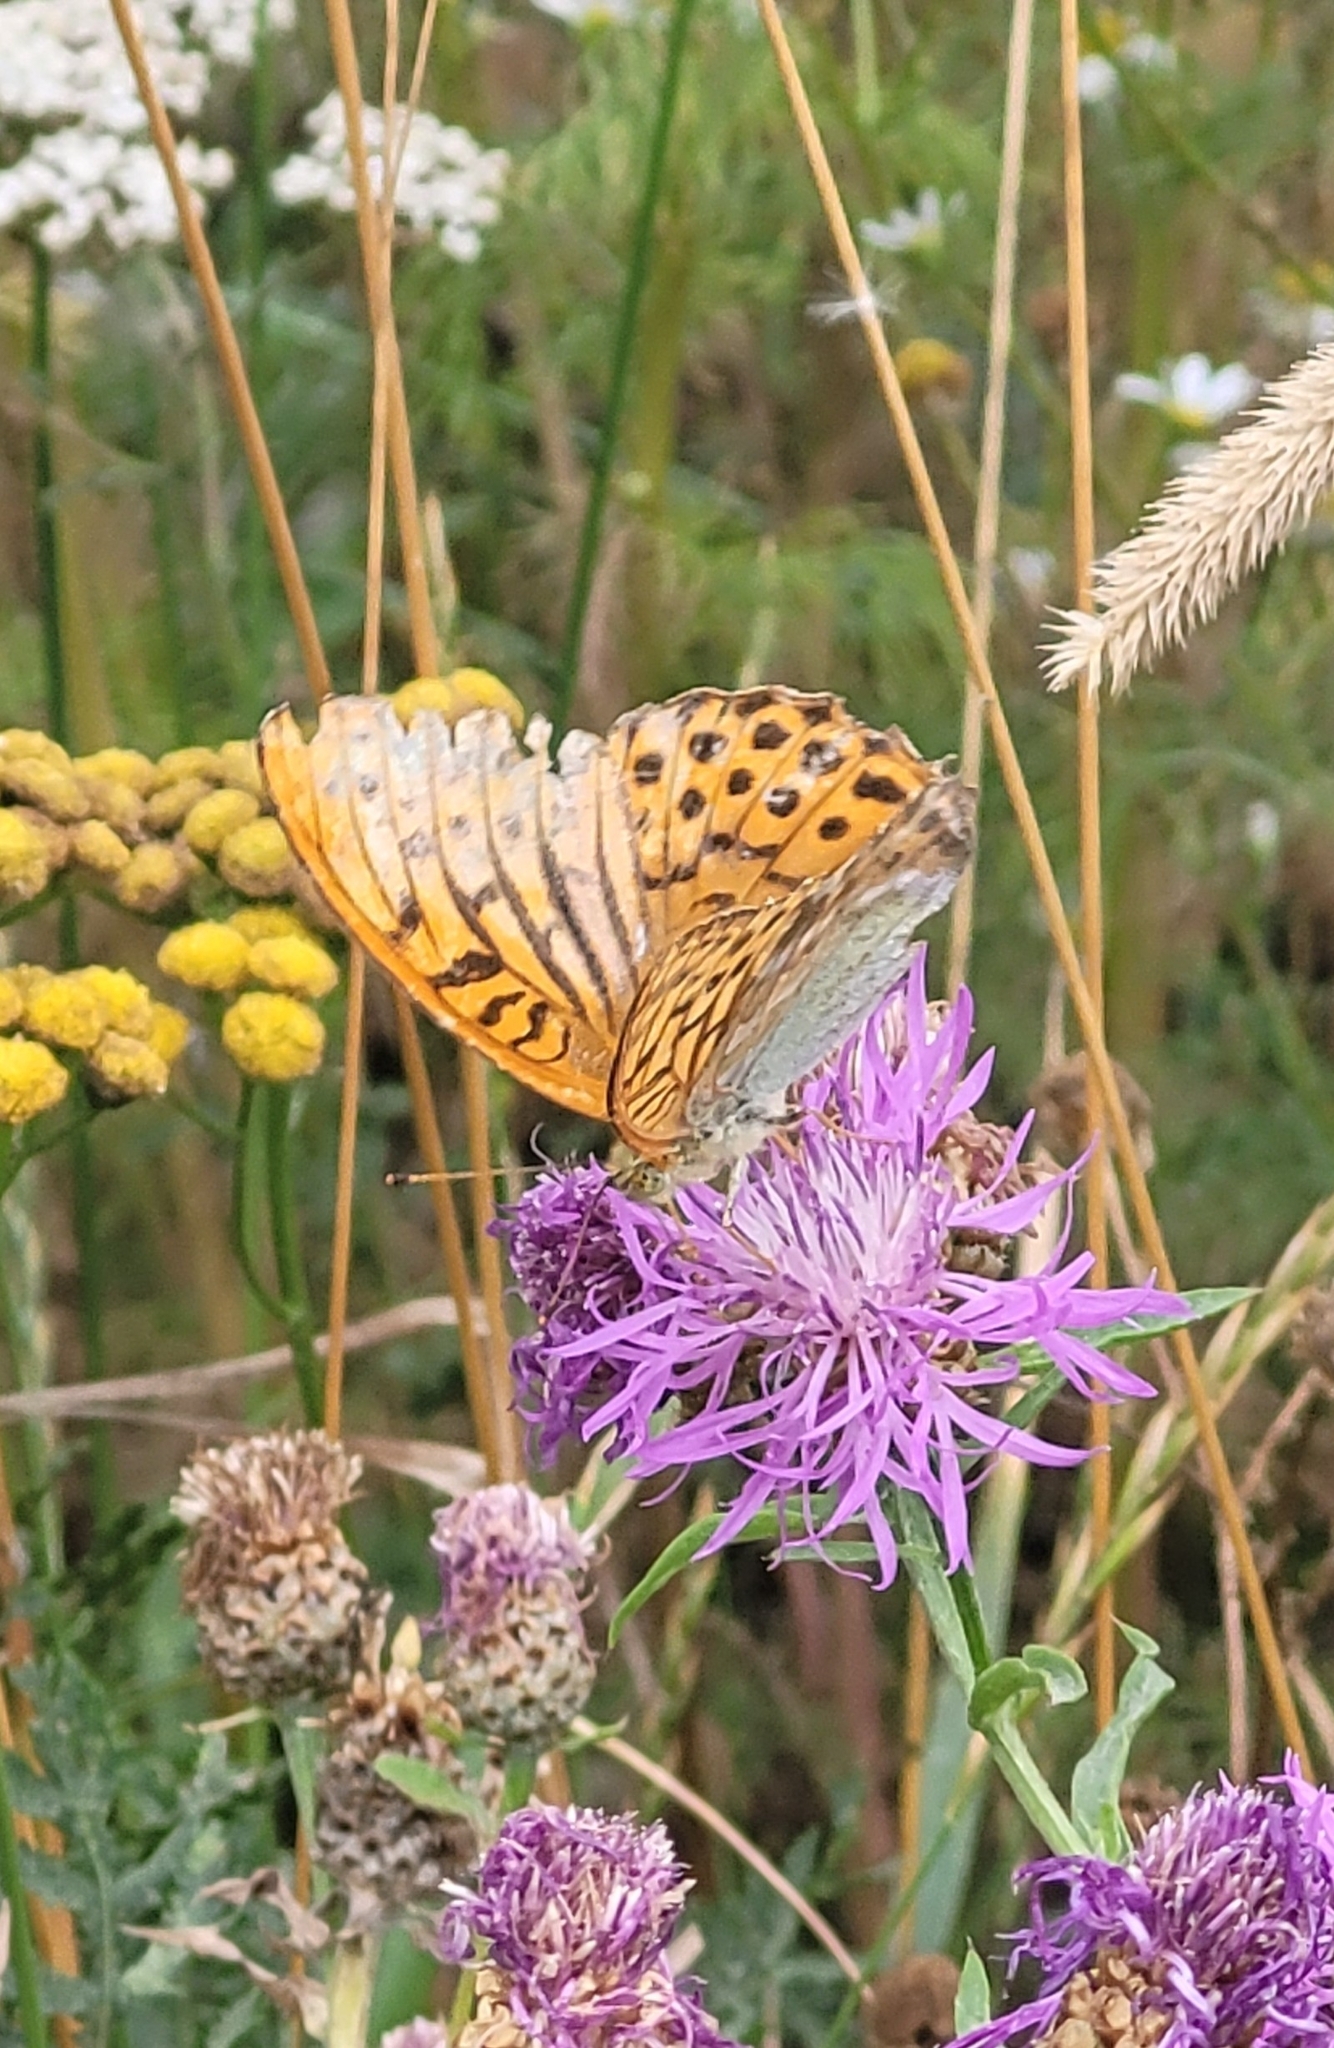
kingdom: Animalia
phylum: Arthropoda
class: Insecta
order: Lepidoptera
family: Nymphalidae
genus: Argynnis
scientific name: Argynnis paphia
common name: Silver-washed fritillary
